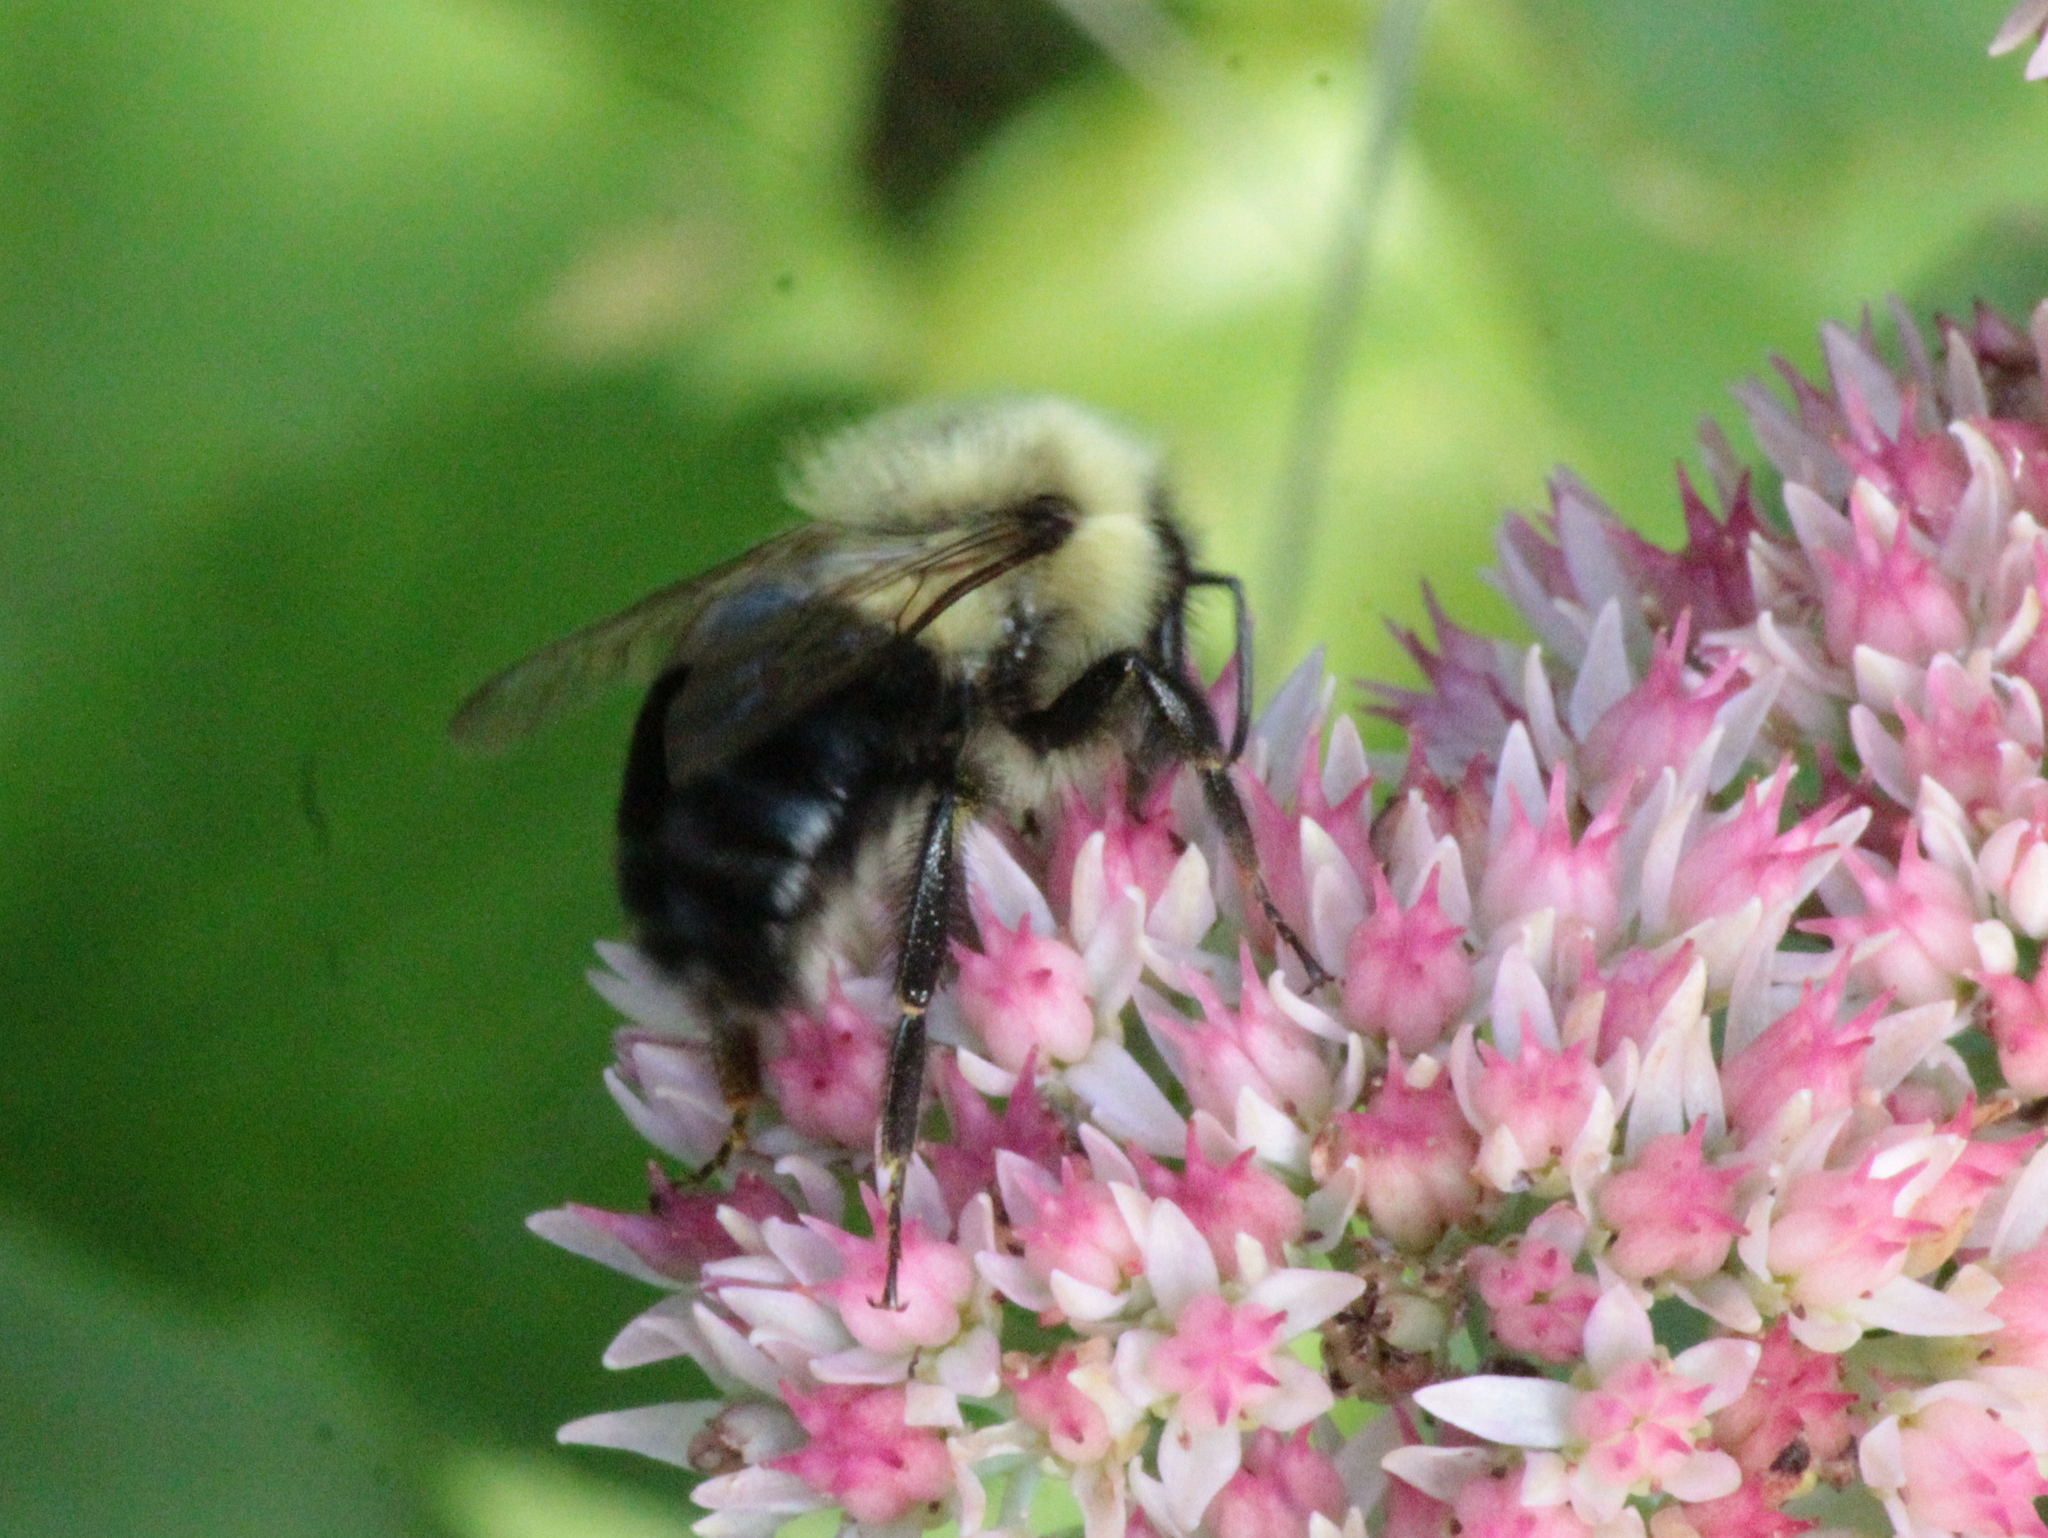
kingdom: Animalia
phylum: Arthropoda
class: Insecta
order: Hymenoptera
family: Apidae
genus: Bombus
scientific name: Bombus impatiens
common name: Common eastern bumble bee
